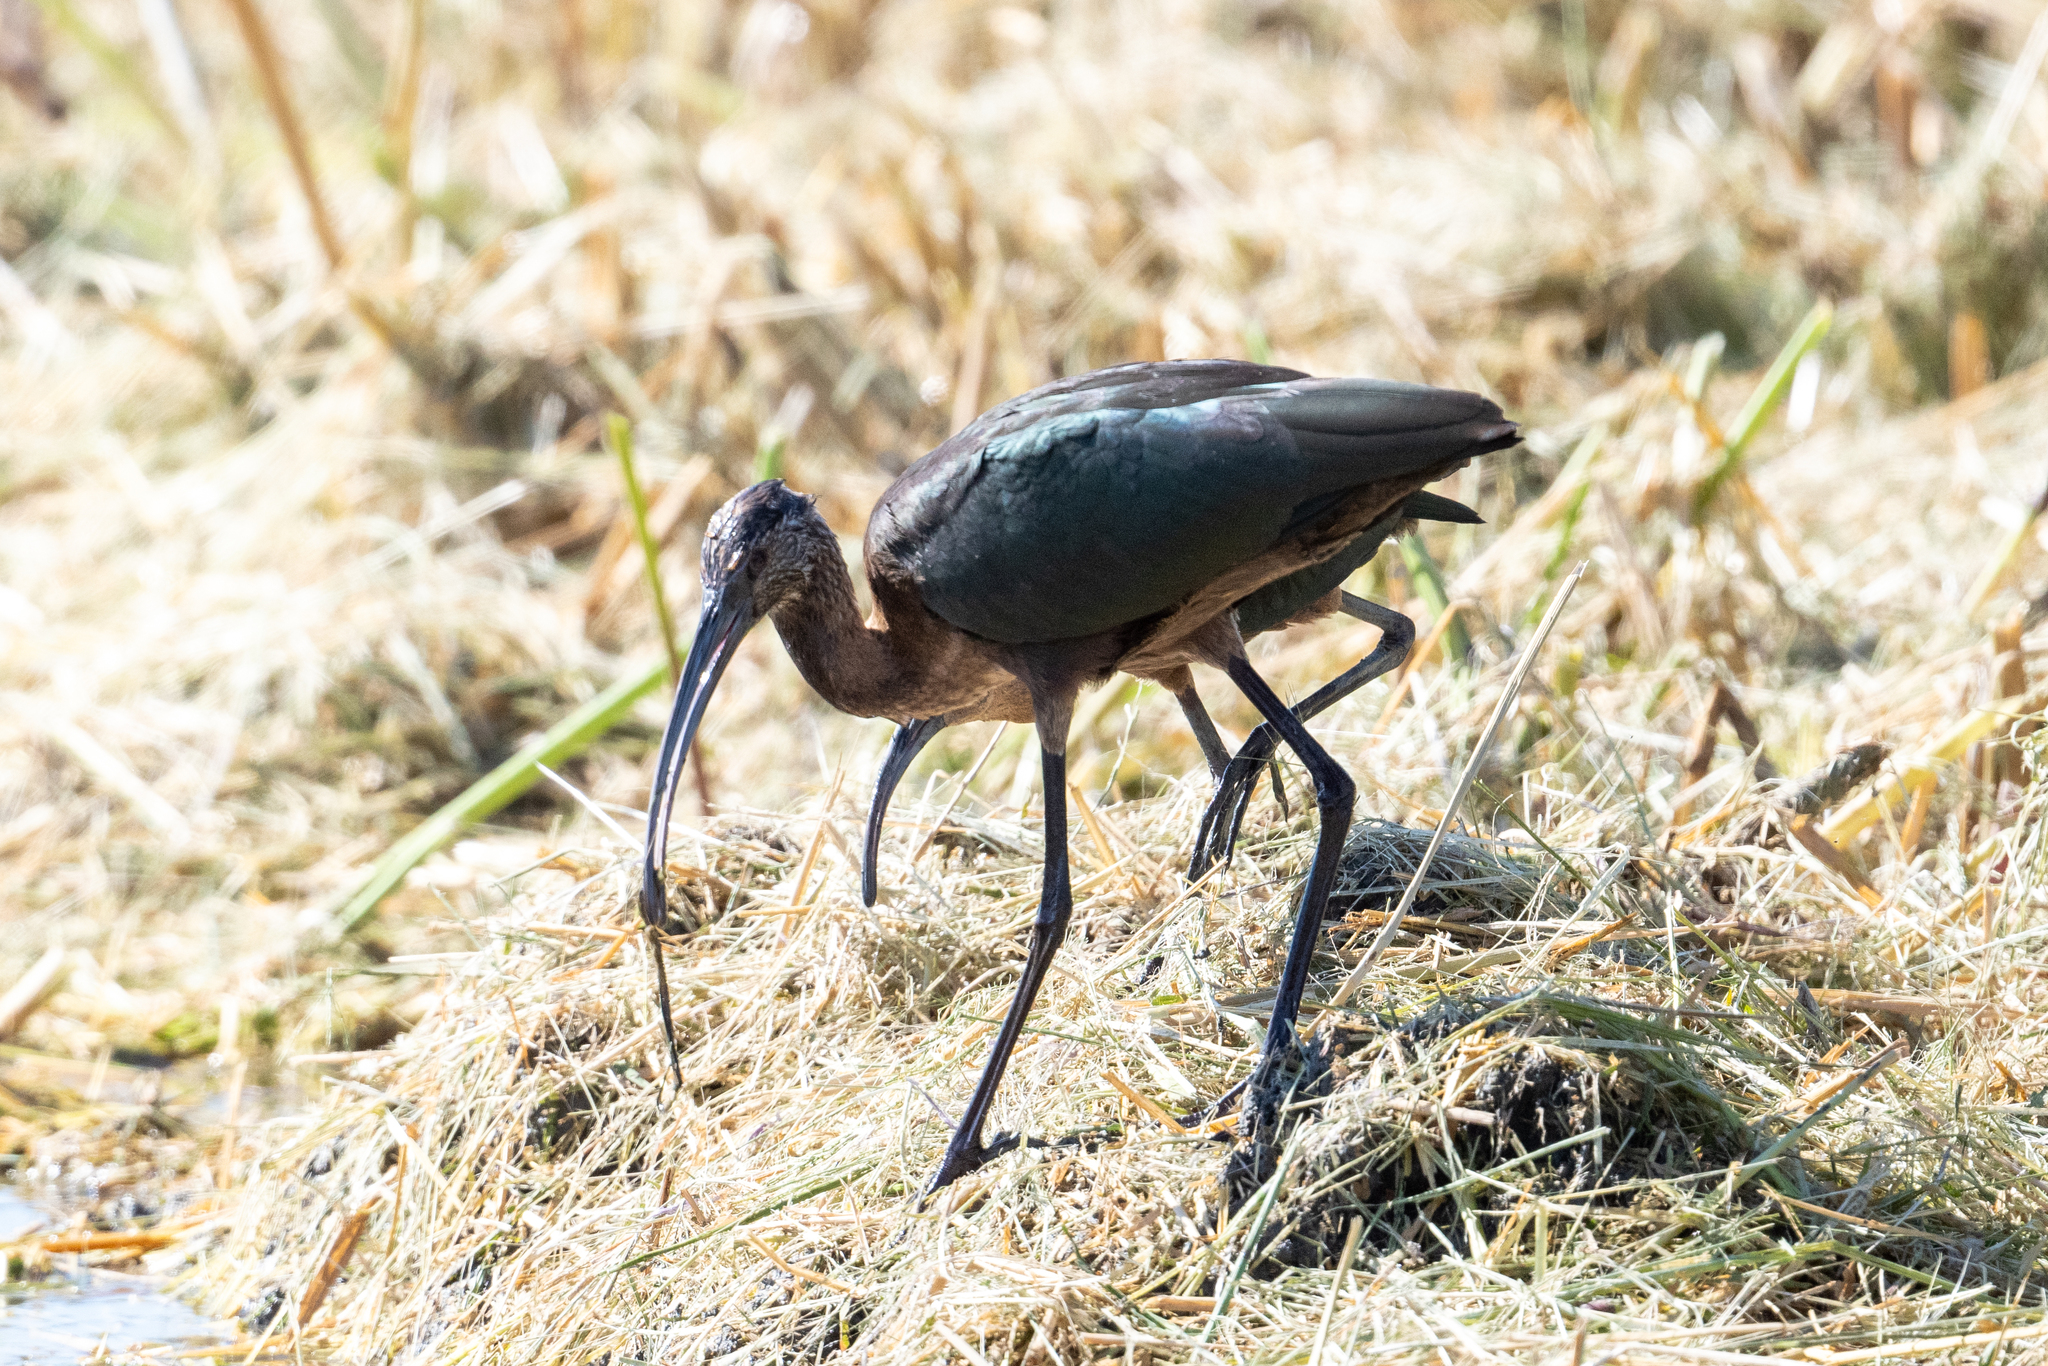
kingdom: Animalia
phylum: Chordata
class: Aves
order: Pelecaniformes
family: Threskiornithidae
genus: Plegadis
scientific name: Plegadis chihi
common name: White-faced ibis
